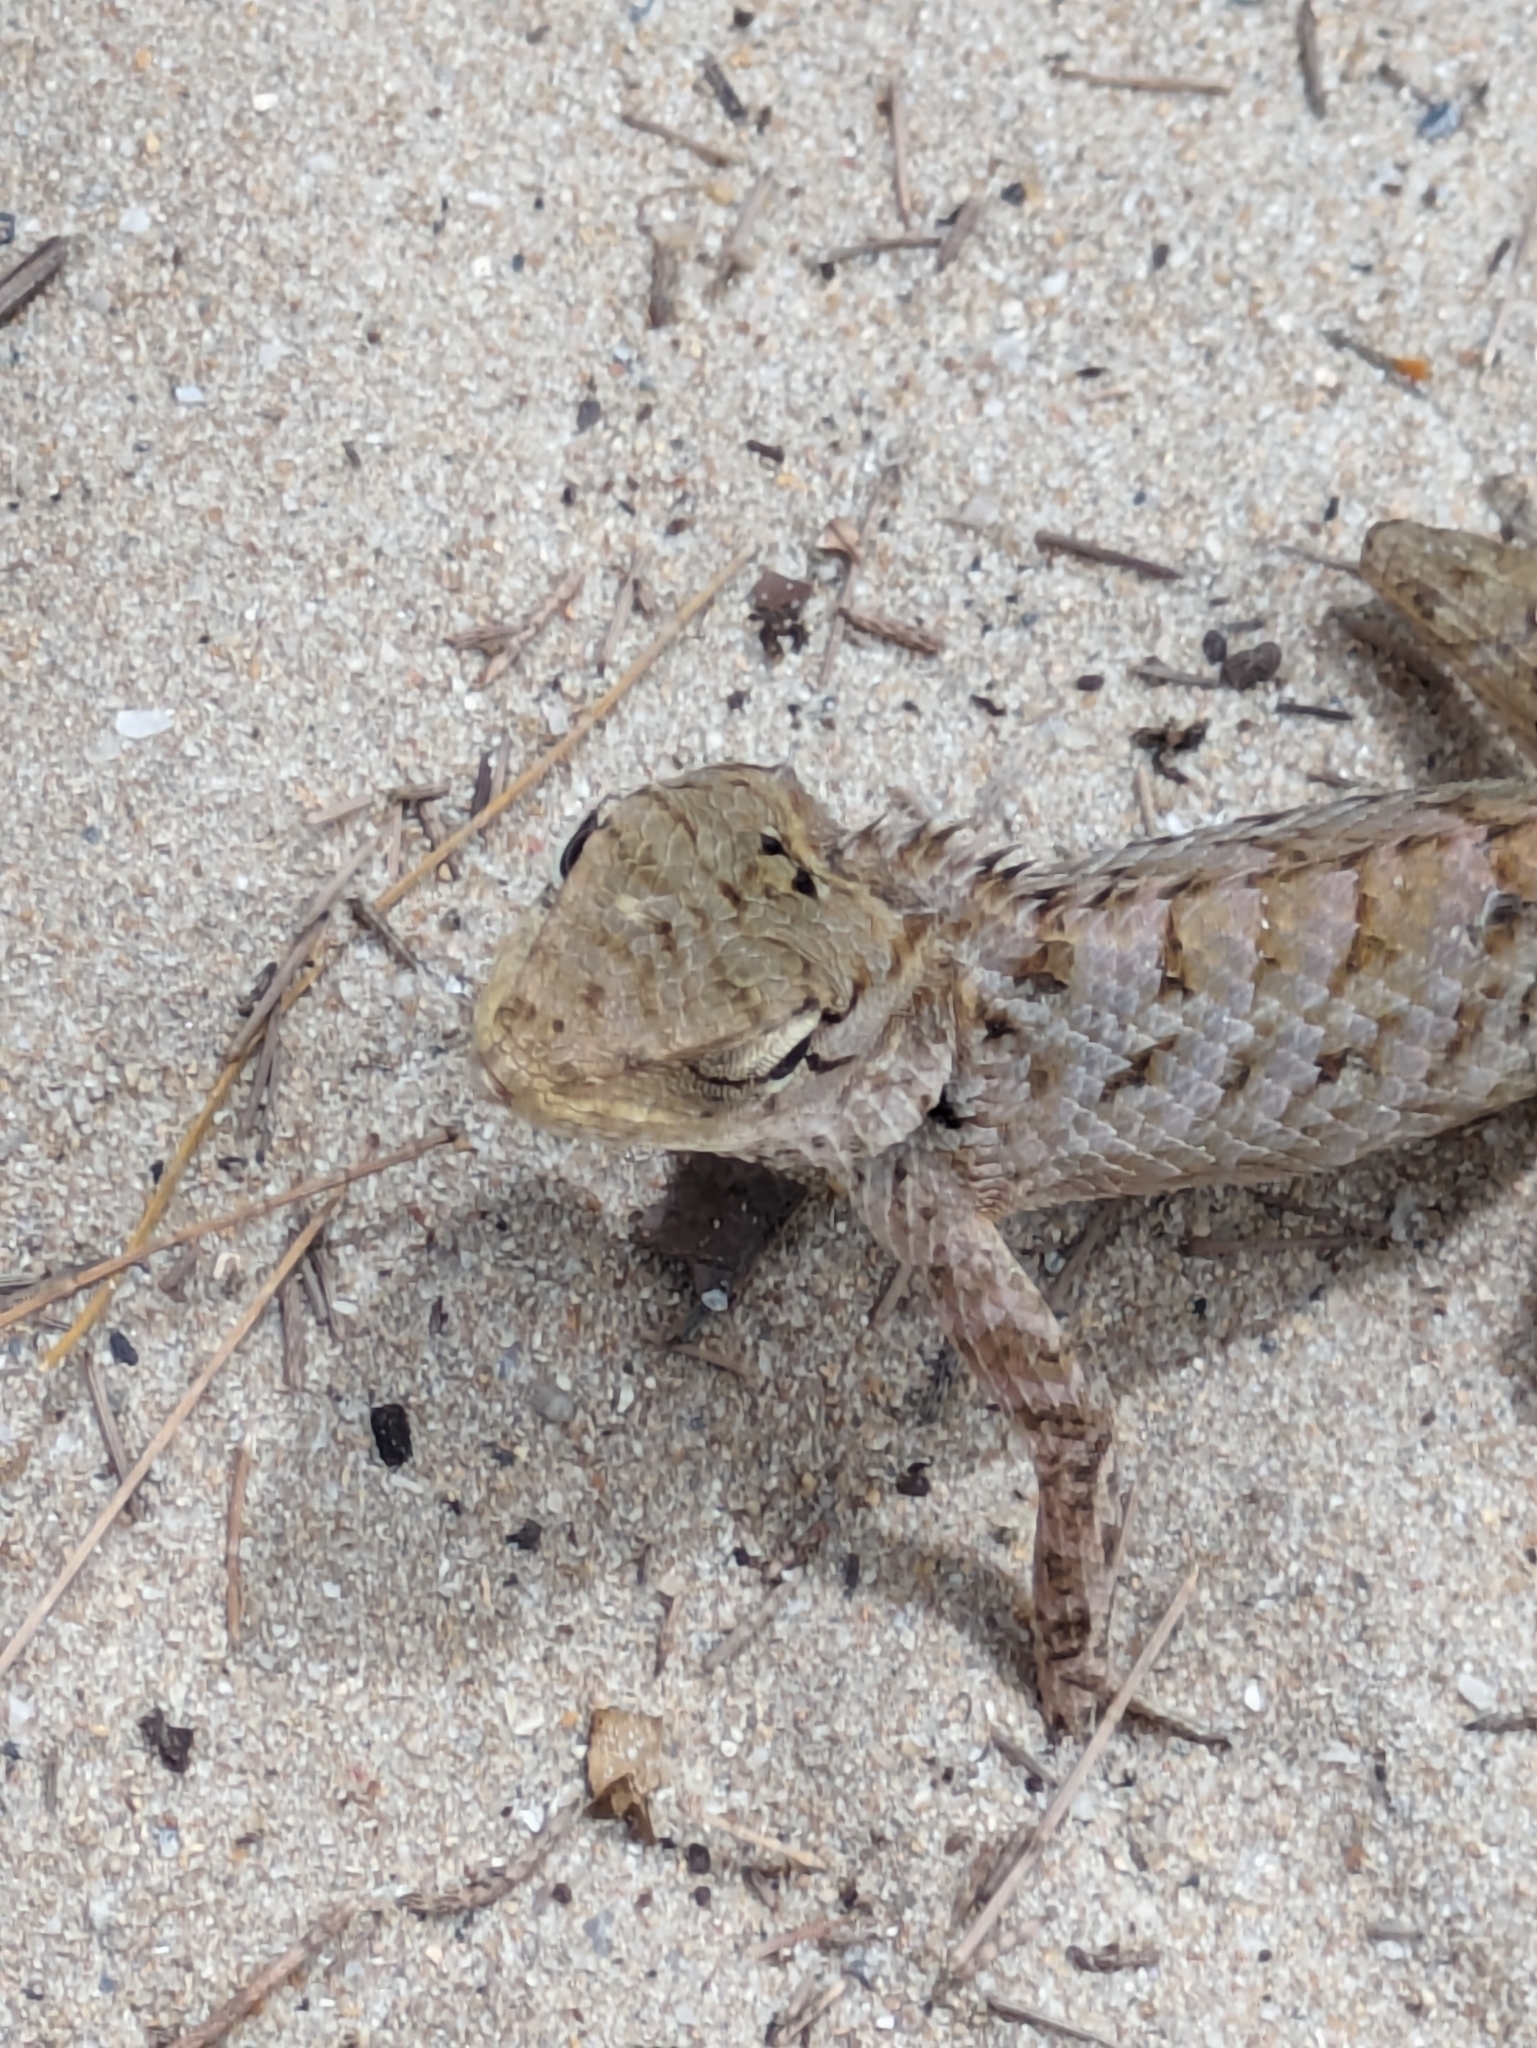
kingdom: Animalia
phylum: Chordata
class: Squamata
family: Agamidae
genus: Calotes
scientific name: Calotes versicolor
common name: Oriental garden lizard
